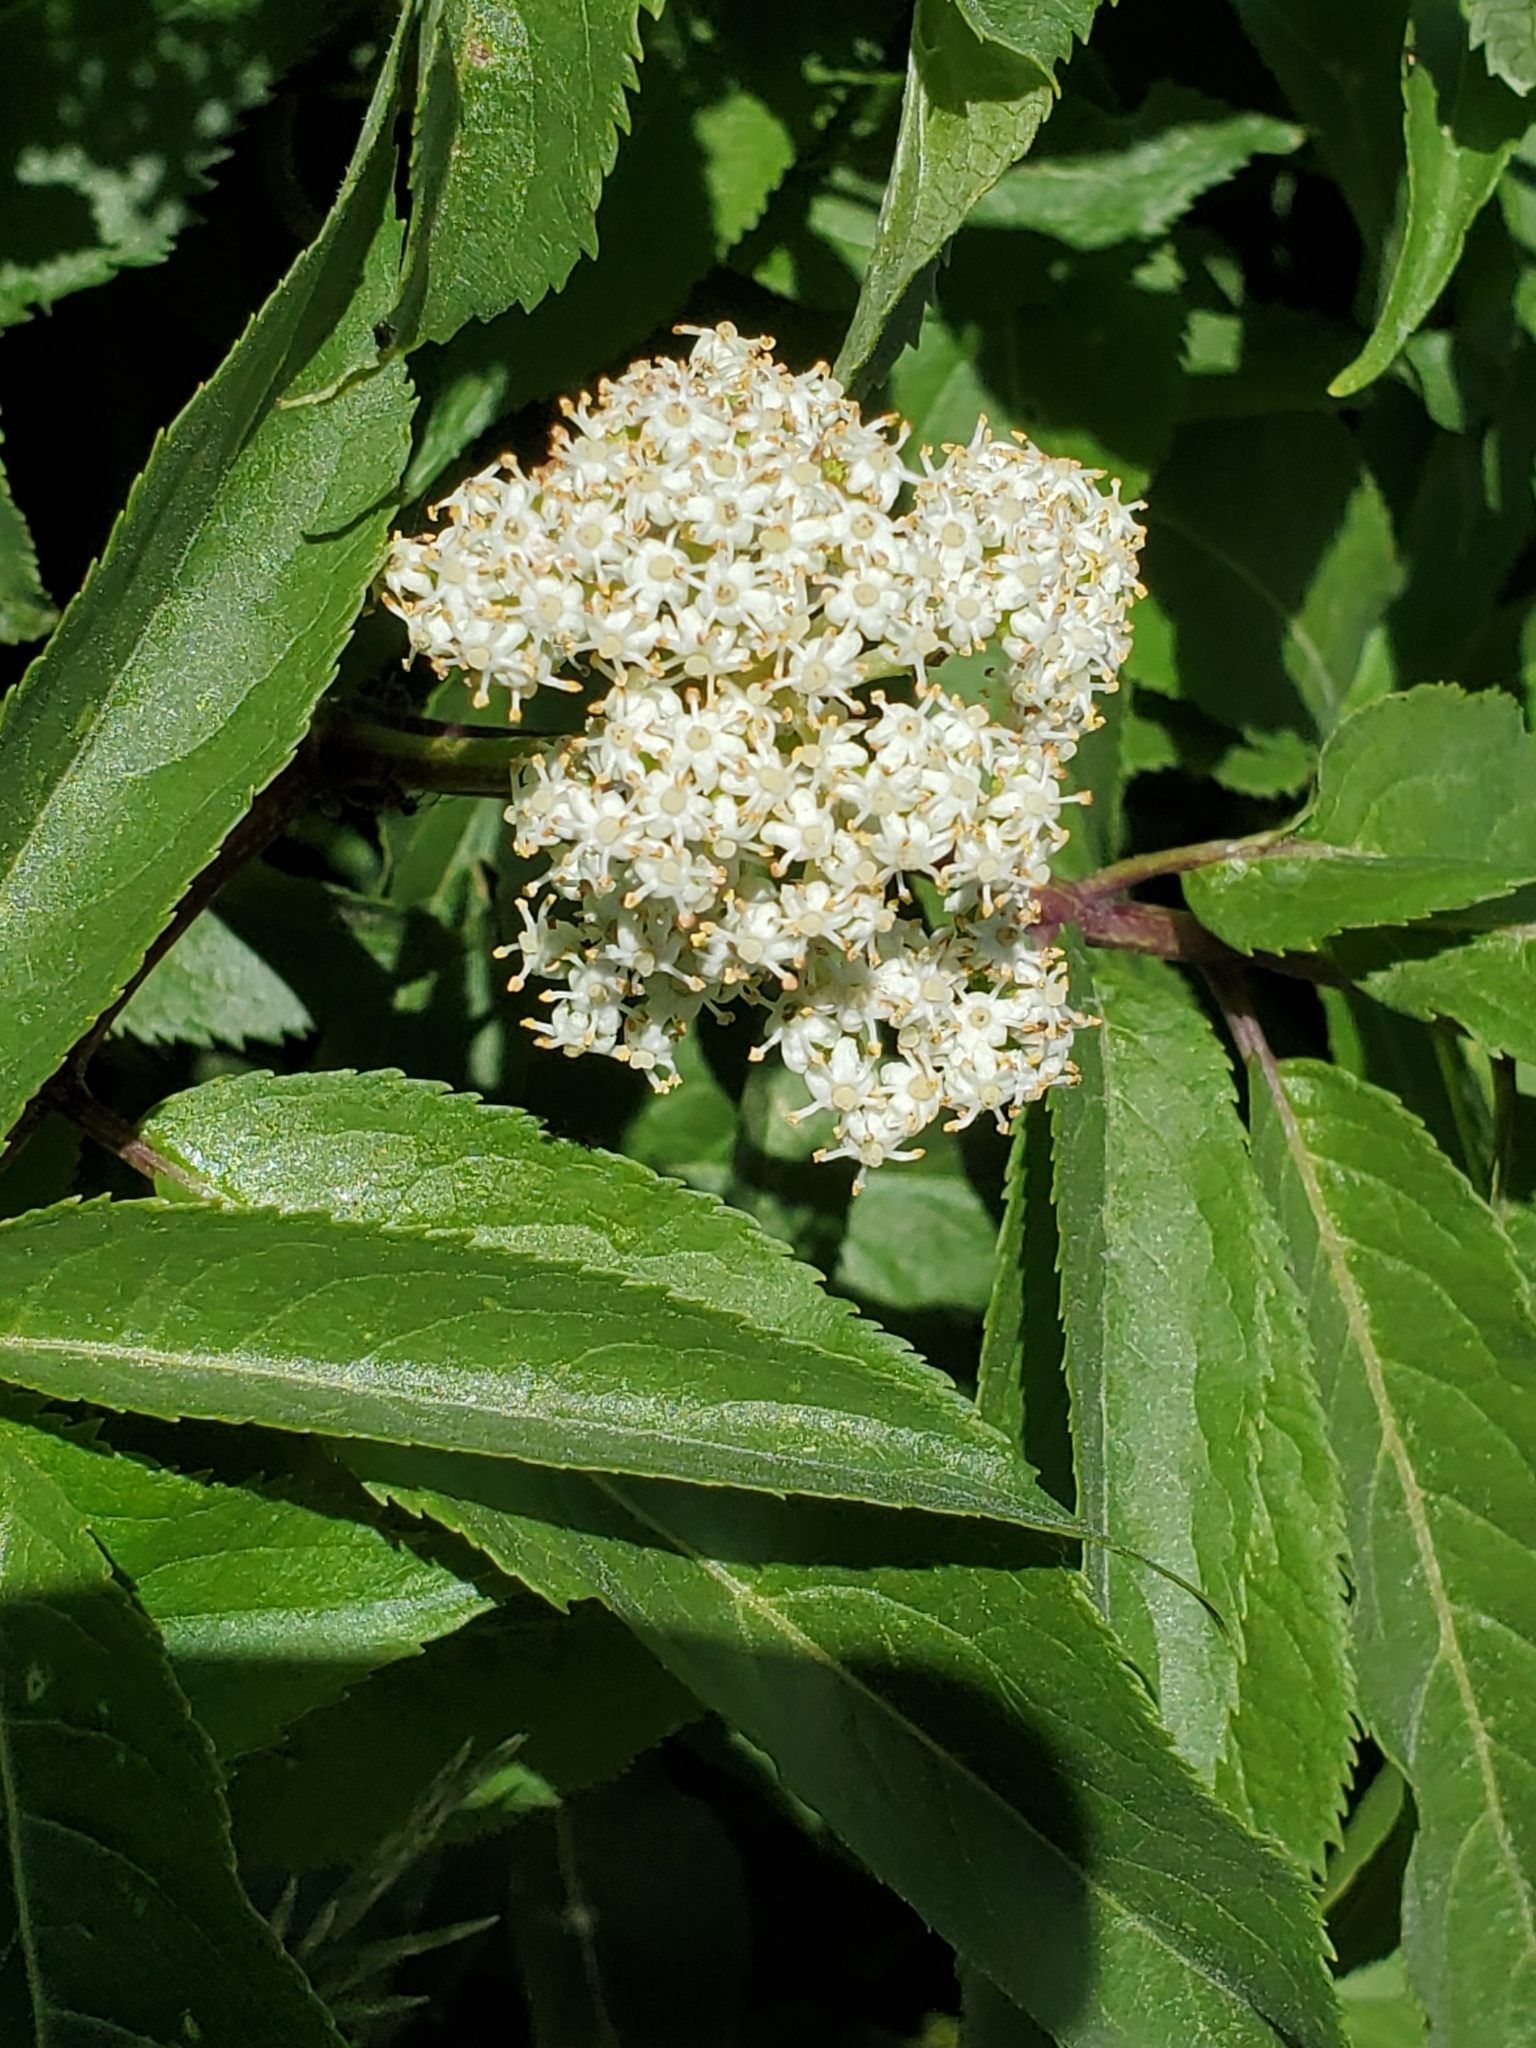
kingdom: Plantae
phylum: Tracheophyta
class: Magnoliopsida
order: Dipsacales
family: Viburnaceae
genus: Sambucus
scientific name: Sambucus racemosa
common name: Red-berried elder
